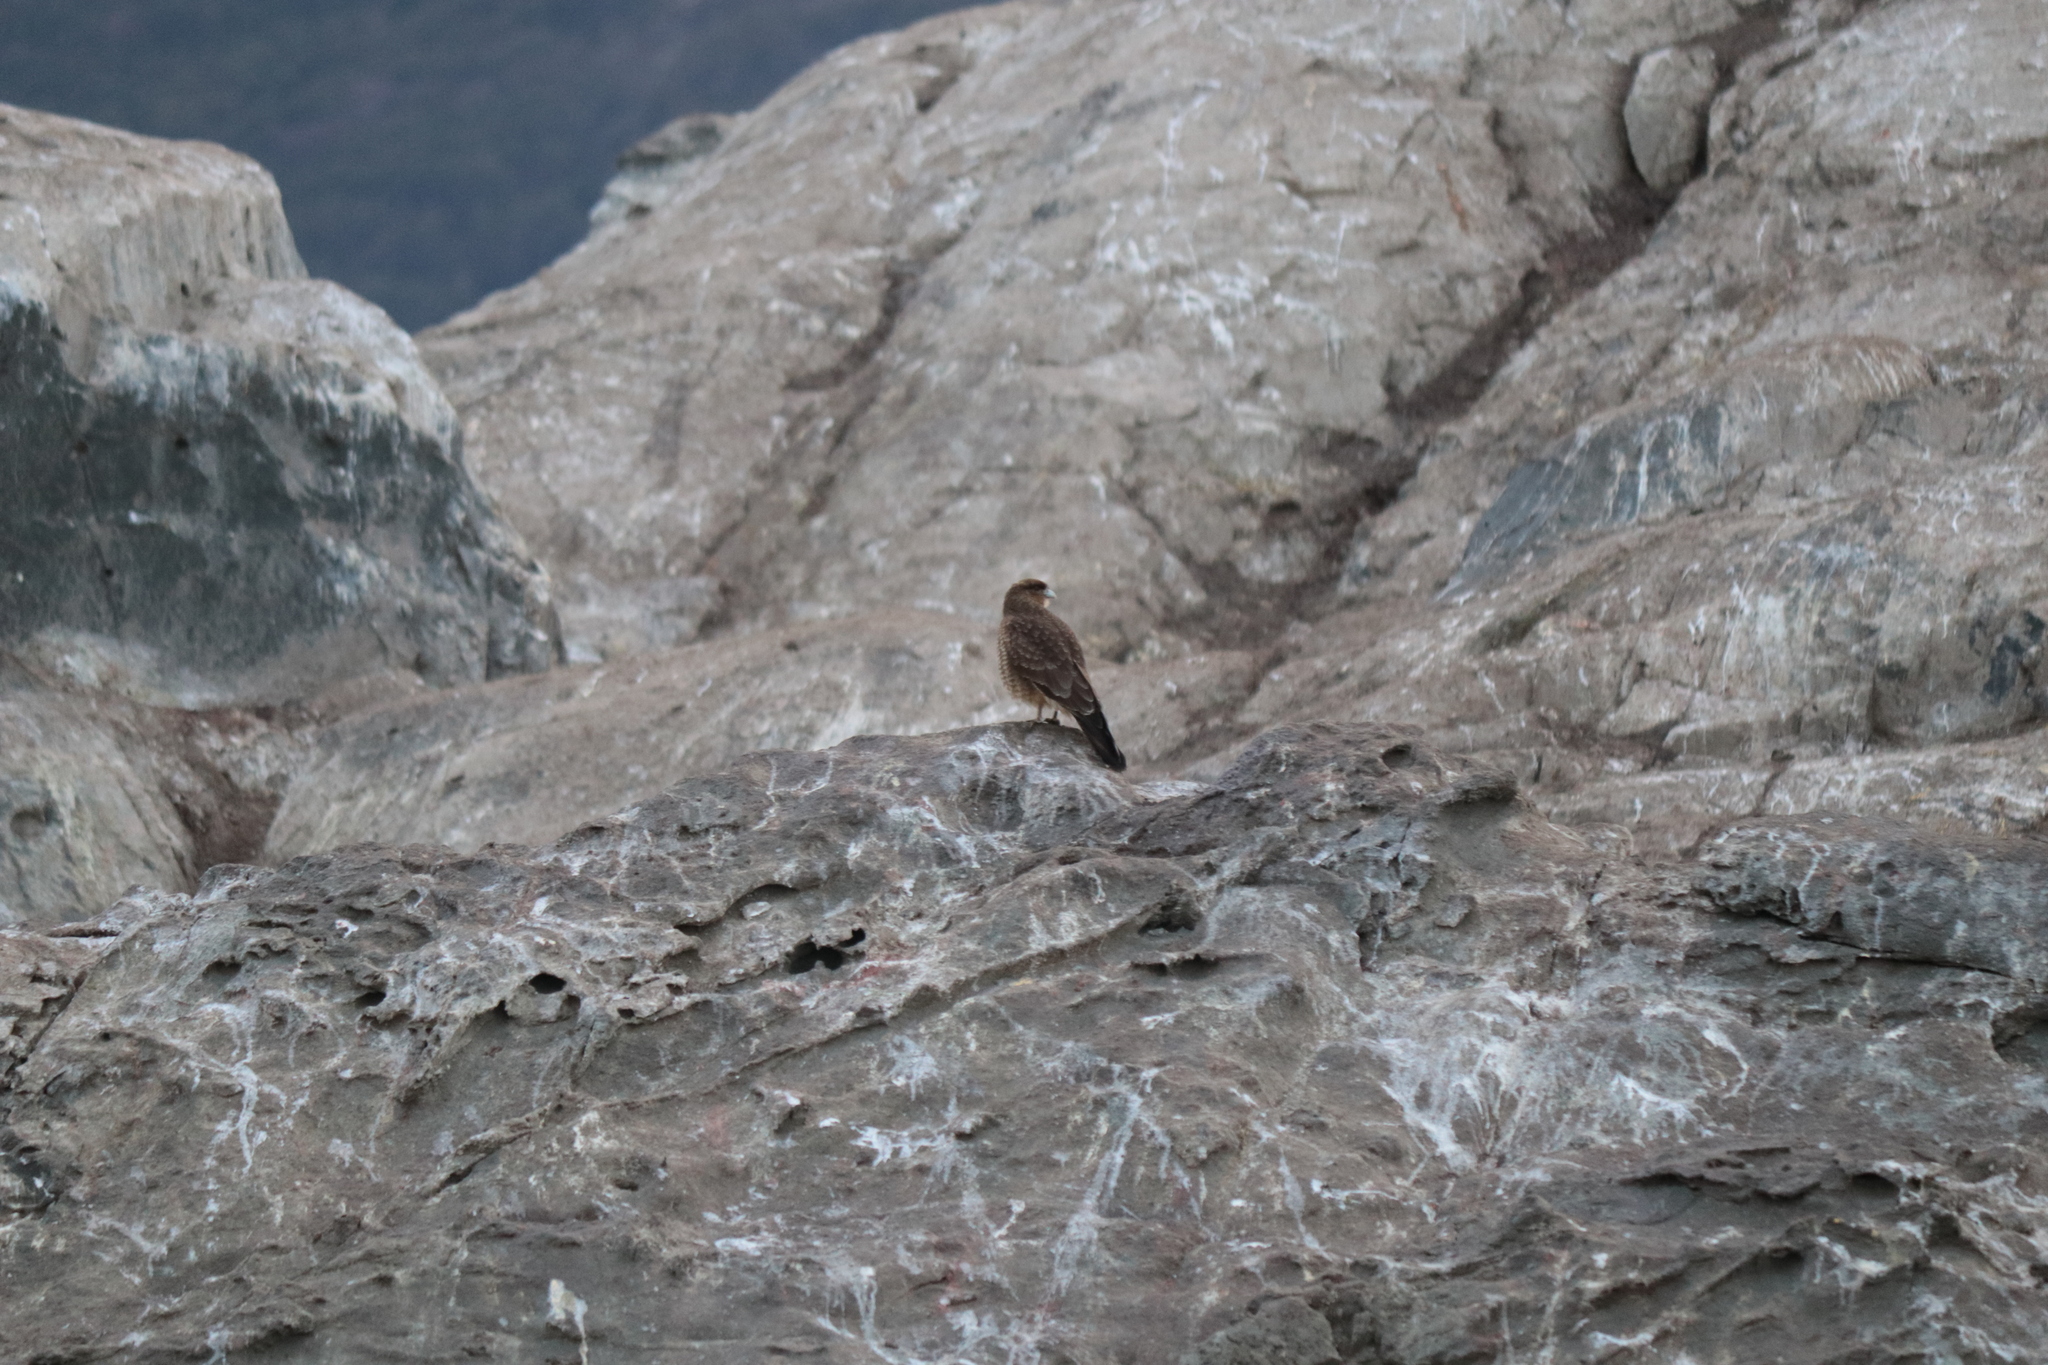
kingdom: Animalia
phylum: Chordata
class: Aves
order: Falconiformes
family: Falconidae
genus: Daptrius
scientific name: Daptrius
